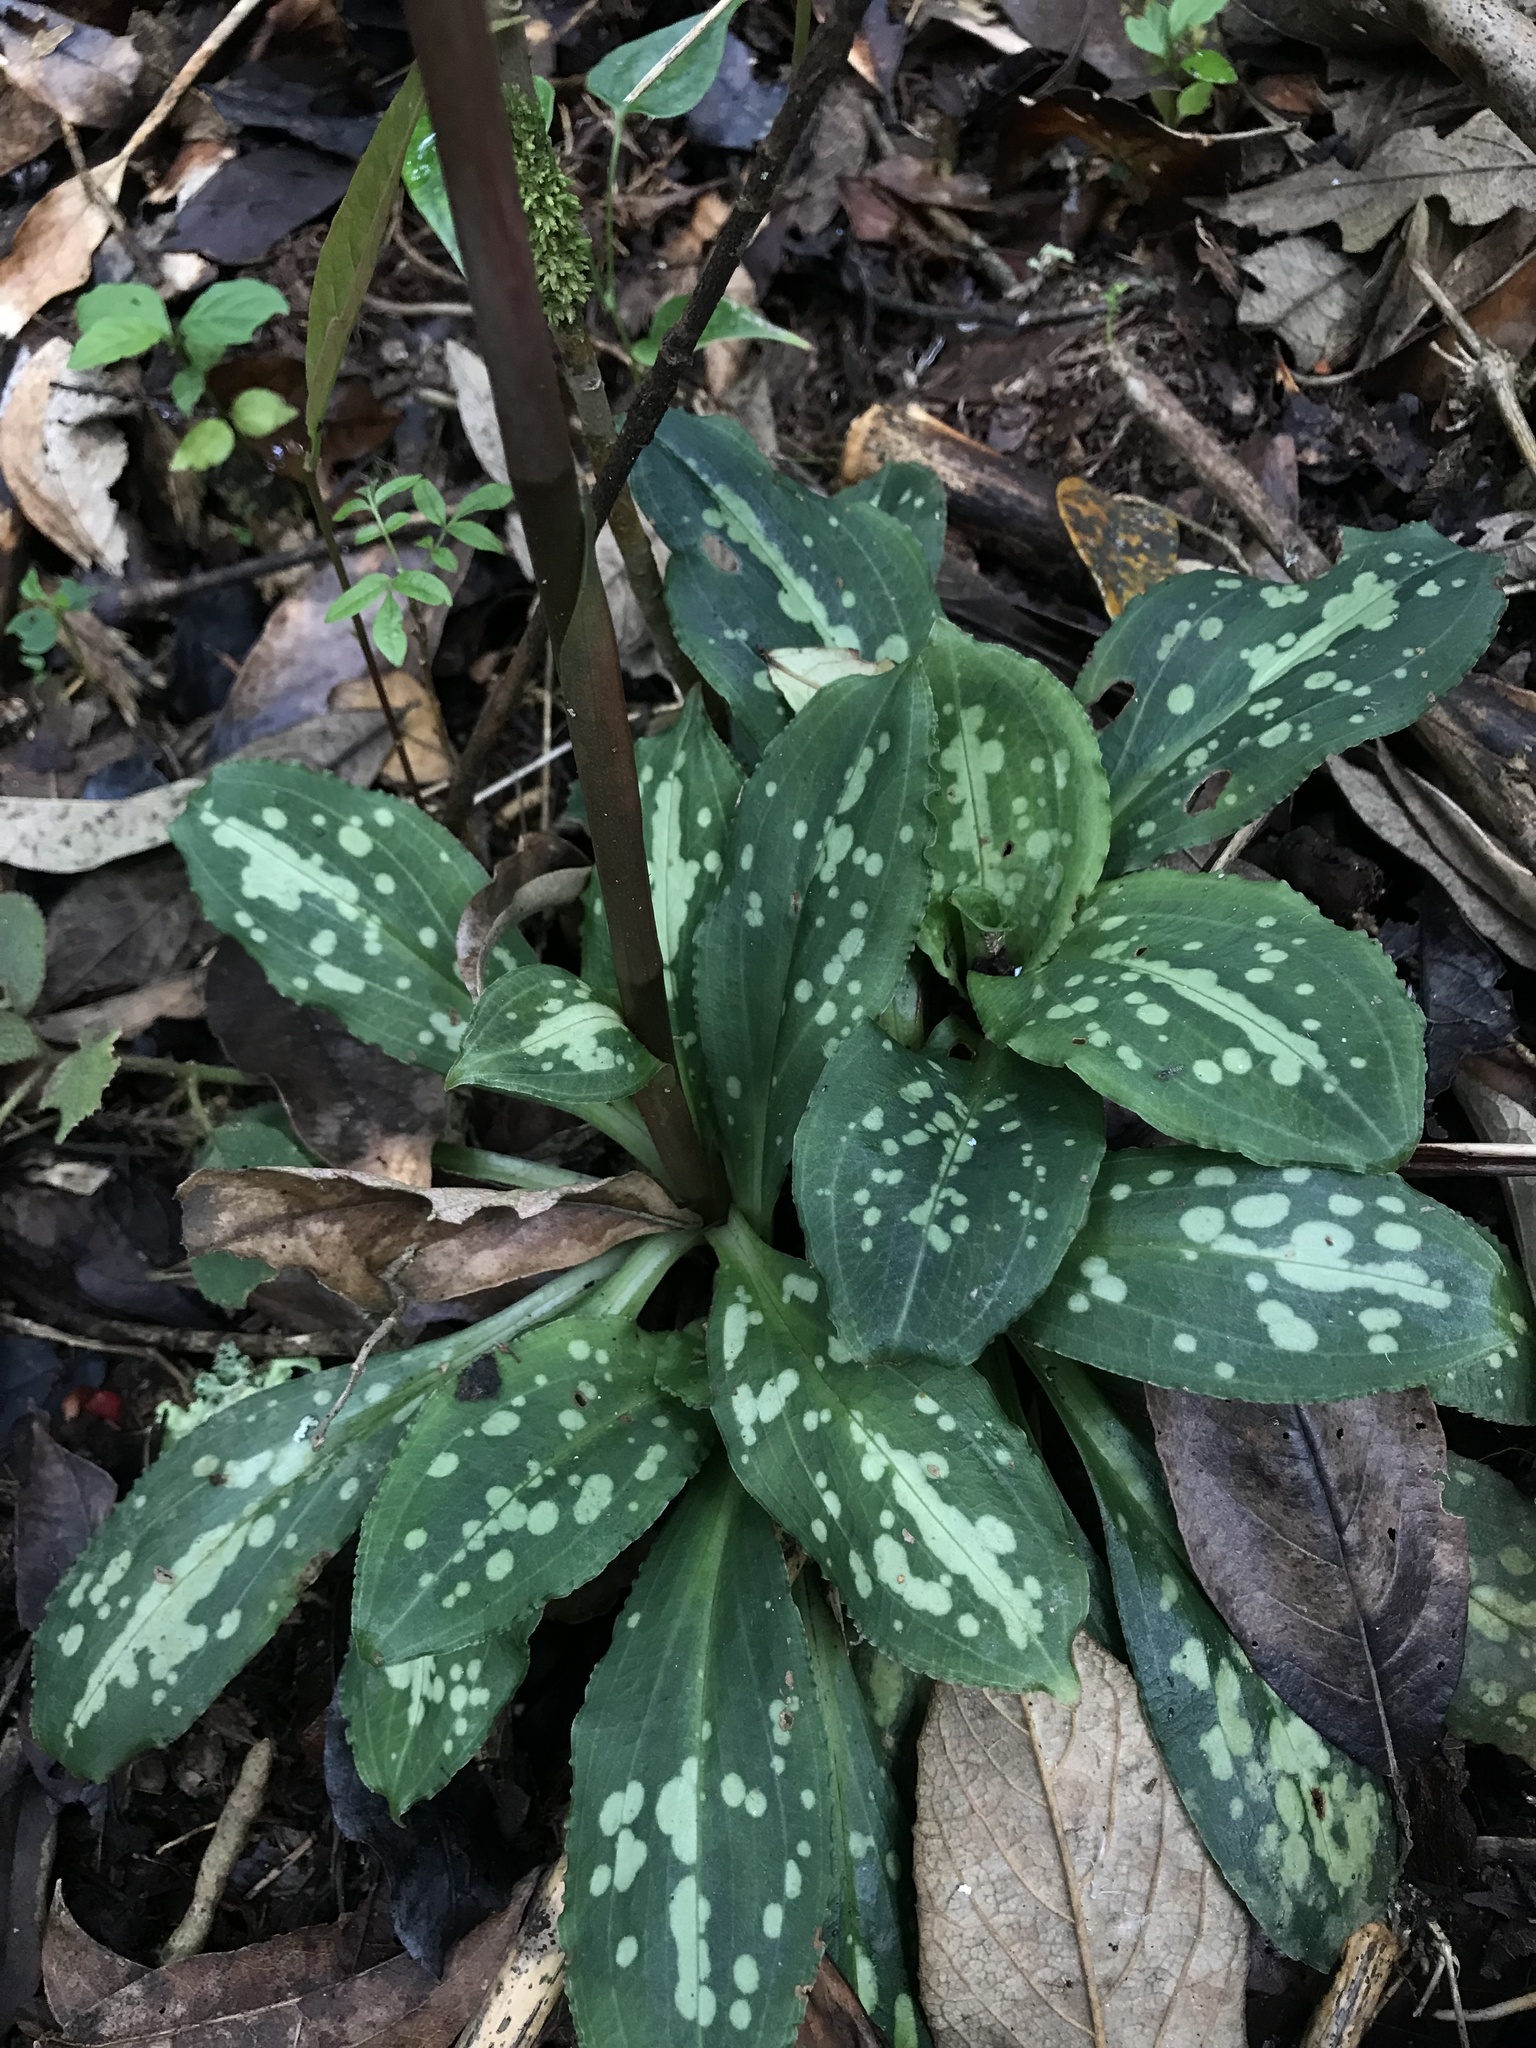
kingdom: Plantae
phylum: Tracheophyta
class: Liliopsida
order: Asparagales
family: Orchidaceae
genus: Stenorrhynchos
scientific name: Stenorrhynchos albidomaculatum
